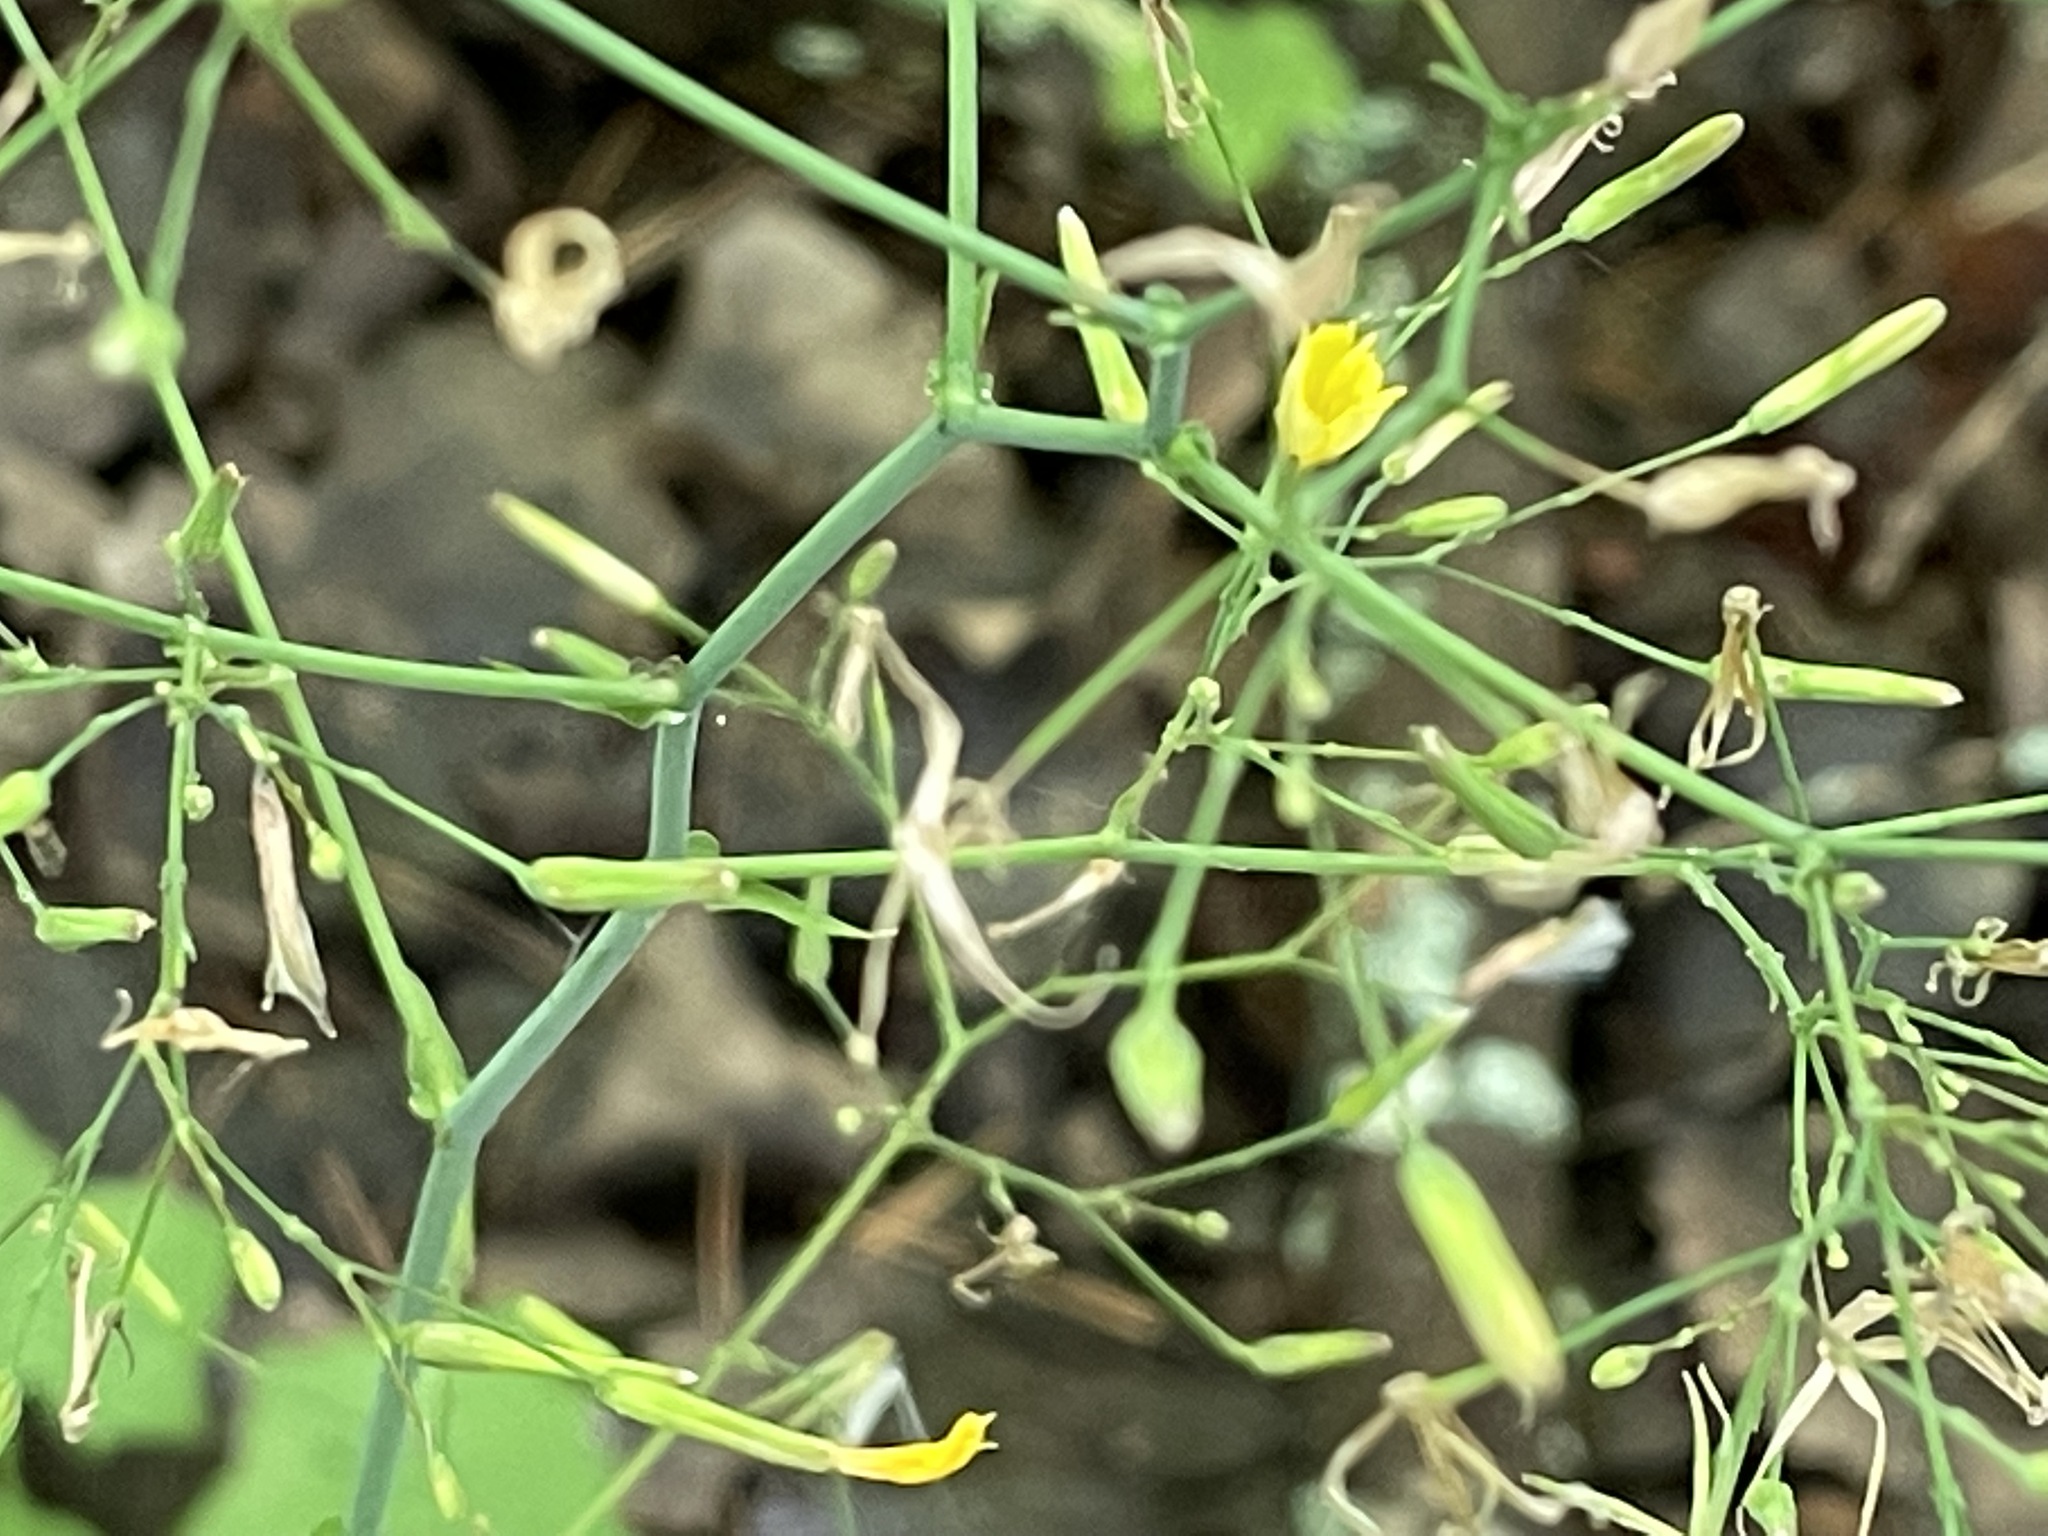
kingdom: Plantae
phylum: Tracheophyta
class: Magnoliopsida
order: Asterales
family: Asteraceae
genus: Mycelis
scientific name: Mycelis muralis
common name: Wall lettuce
